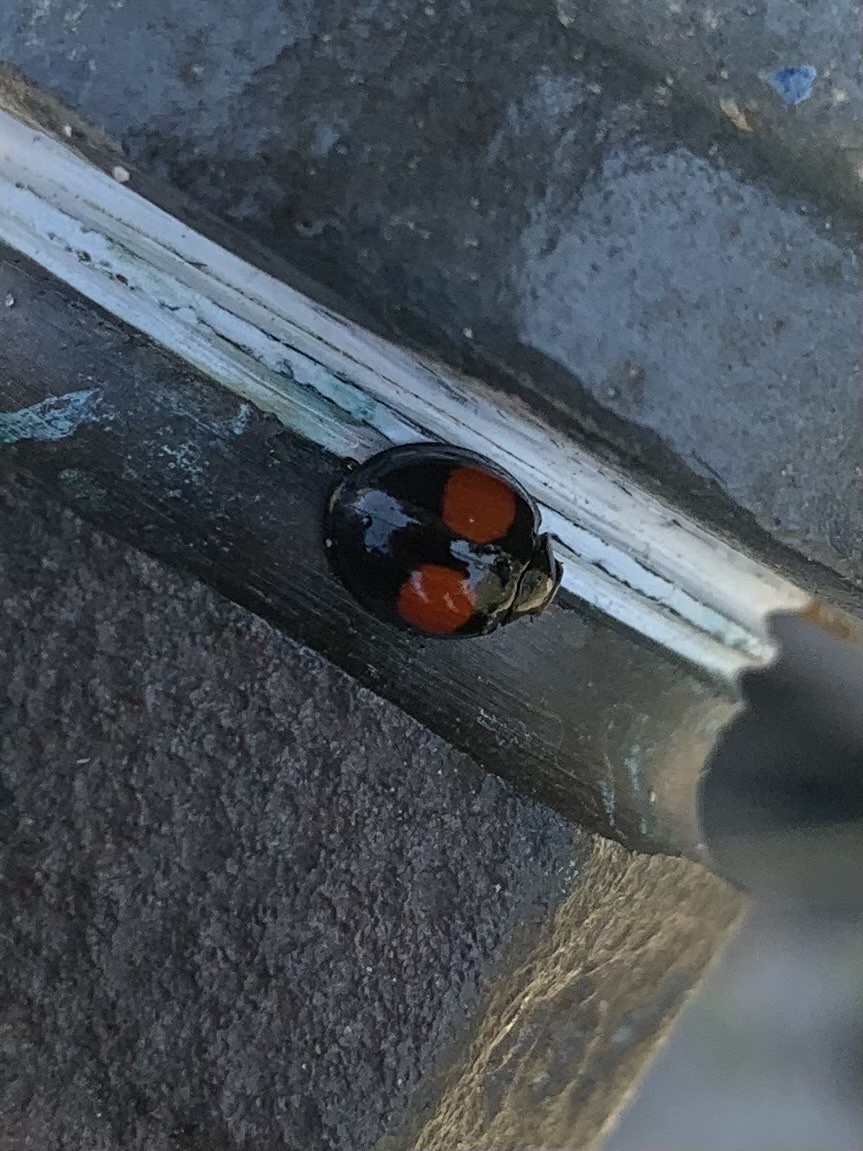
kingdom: Animalia
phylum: Arthropoda
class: Insecta
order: Coleoptera
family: Coccinellidae
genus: Chilocorus
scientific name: Chilocorus cacti
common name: Cactus lady beetle
